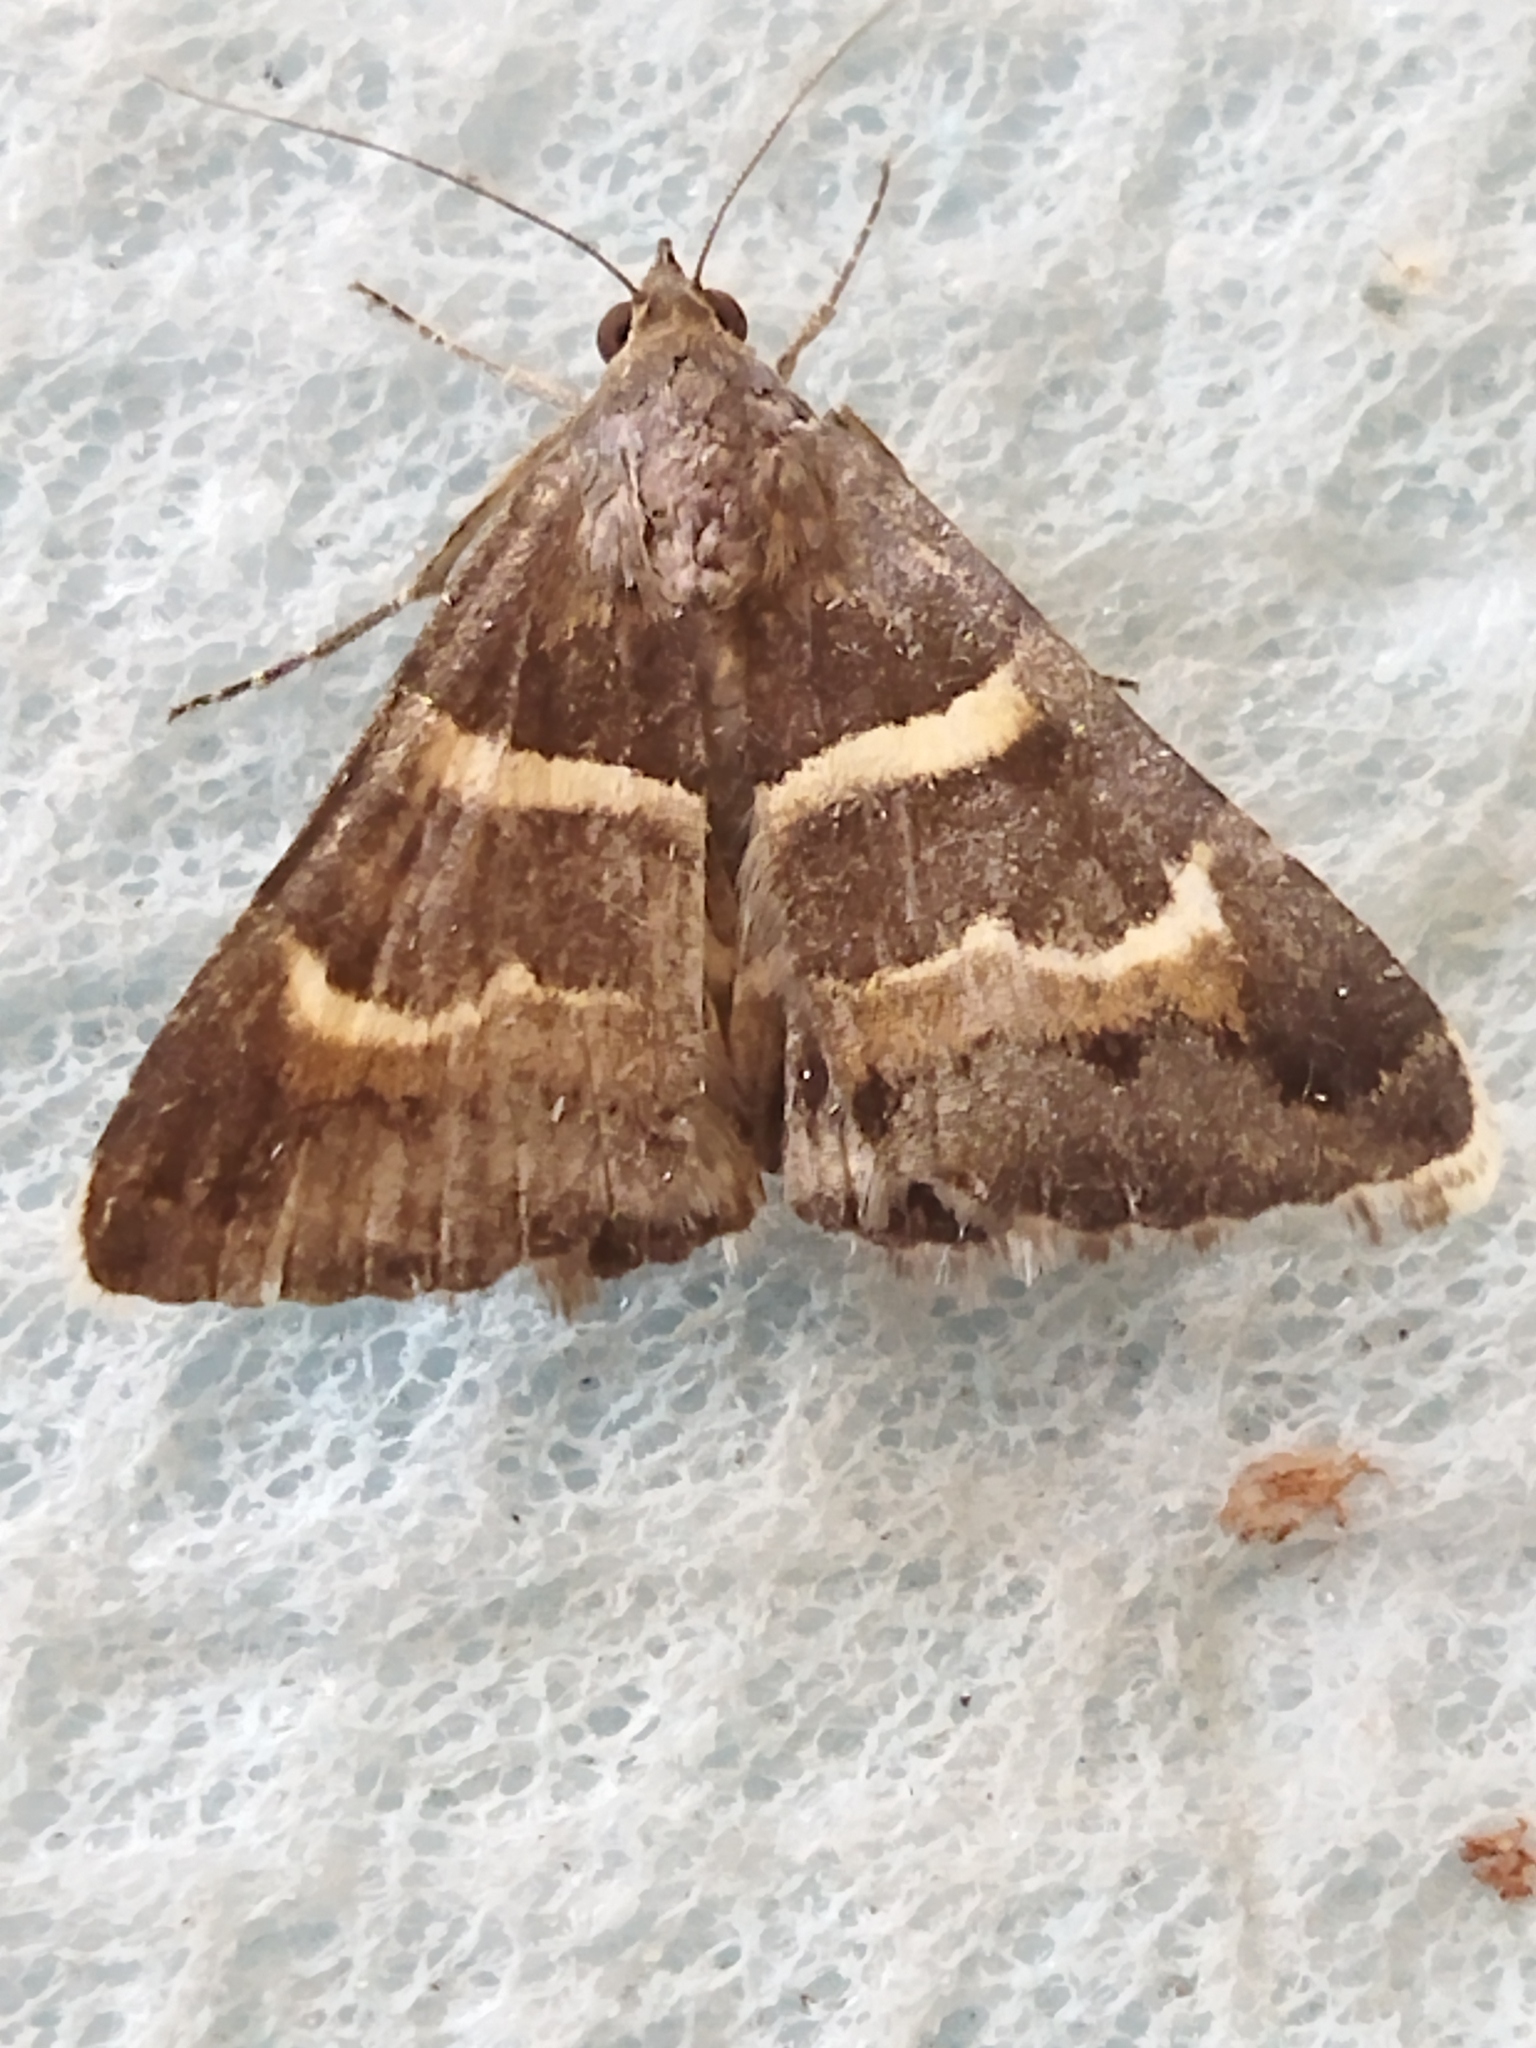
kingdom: Animalia
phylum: Arthropoda
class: Insecta
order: Lepidoptera
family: Erebidae
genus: Grammodes
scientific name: Grammodes stolida
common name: Geometrician
